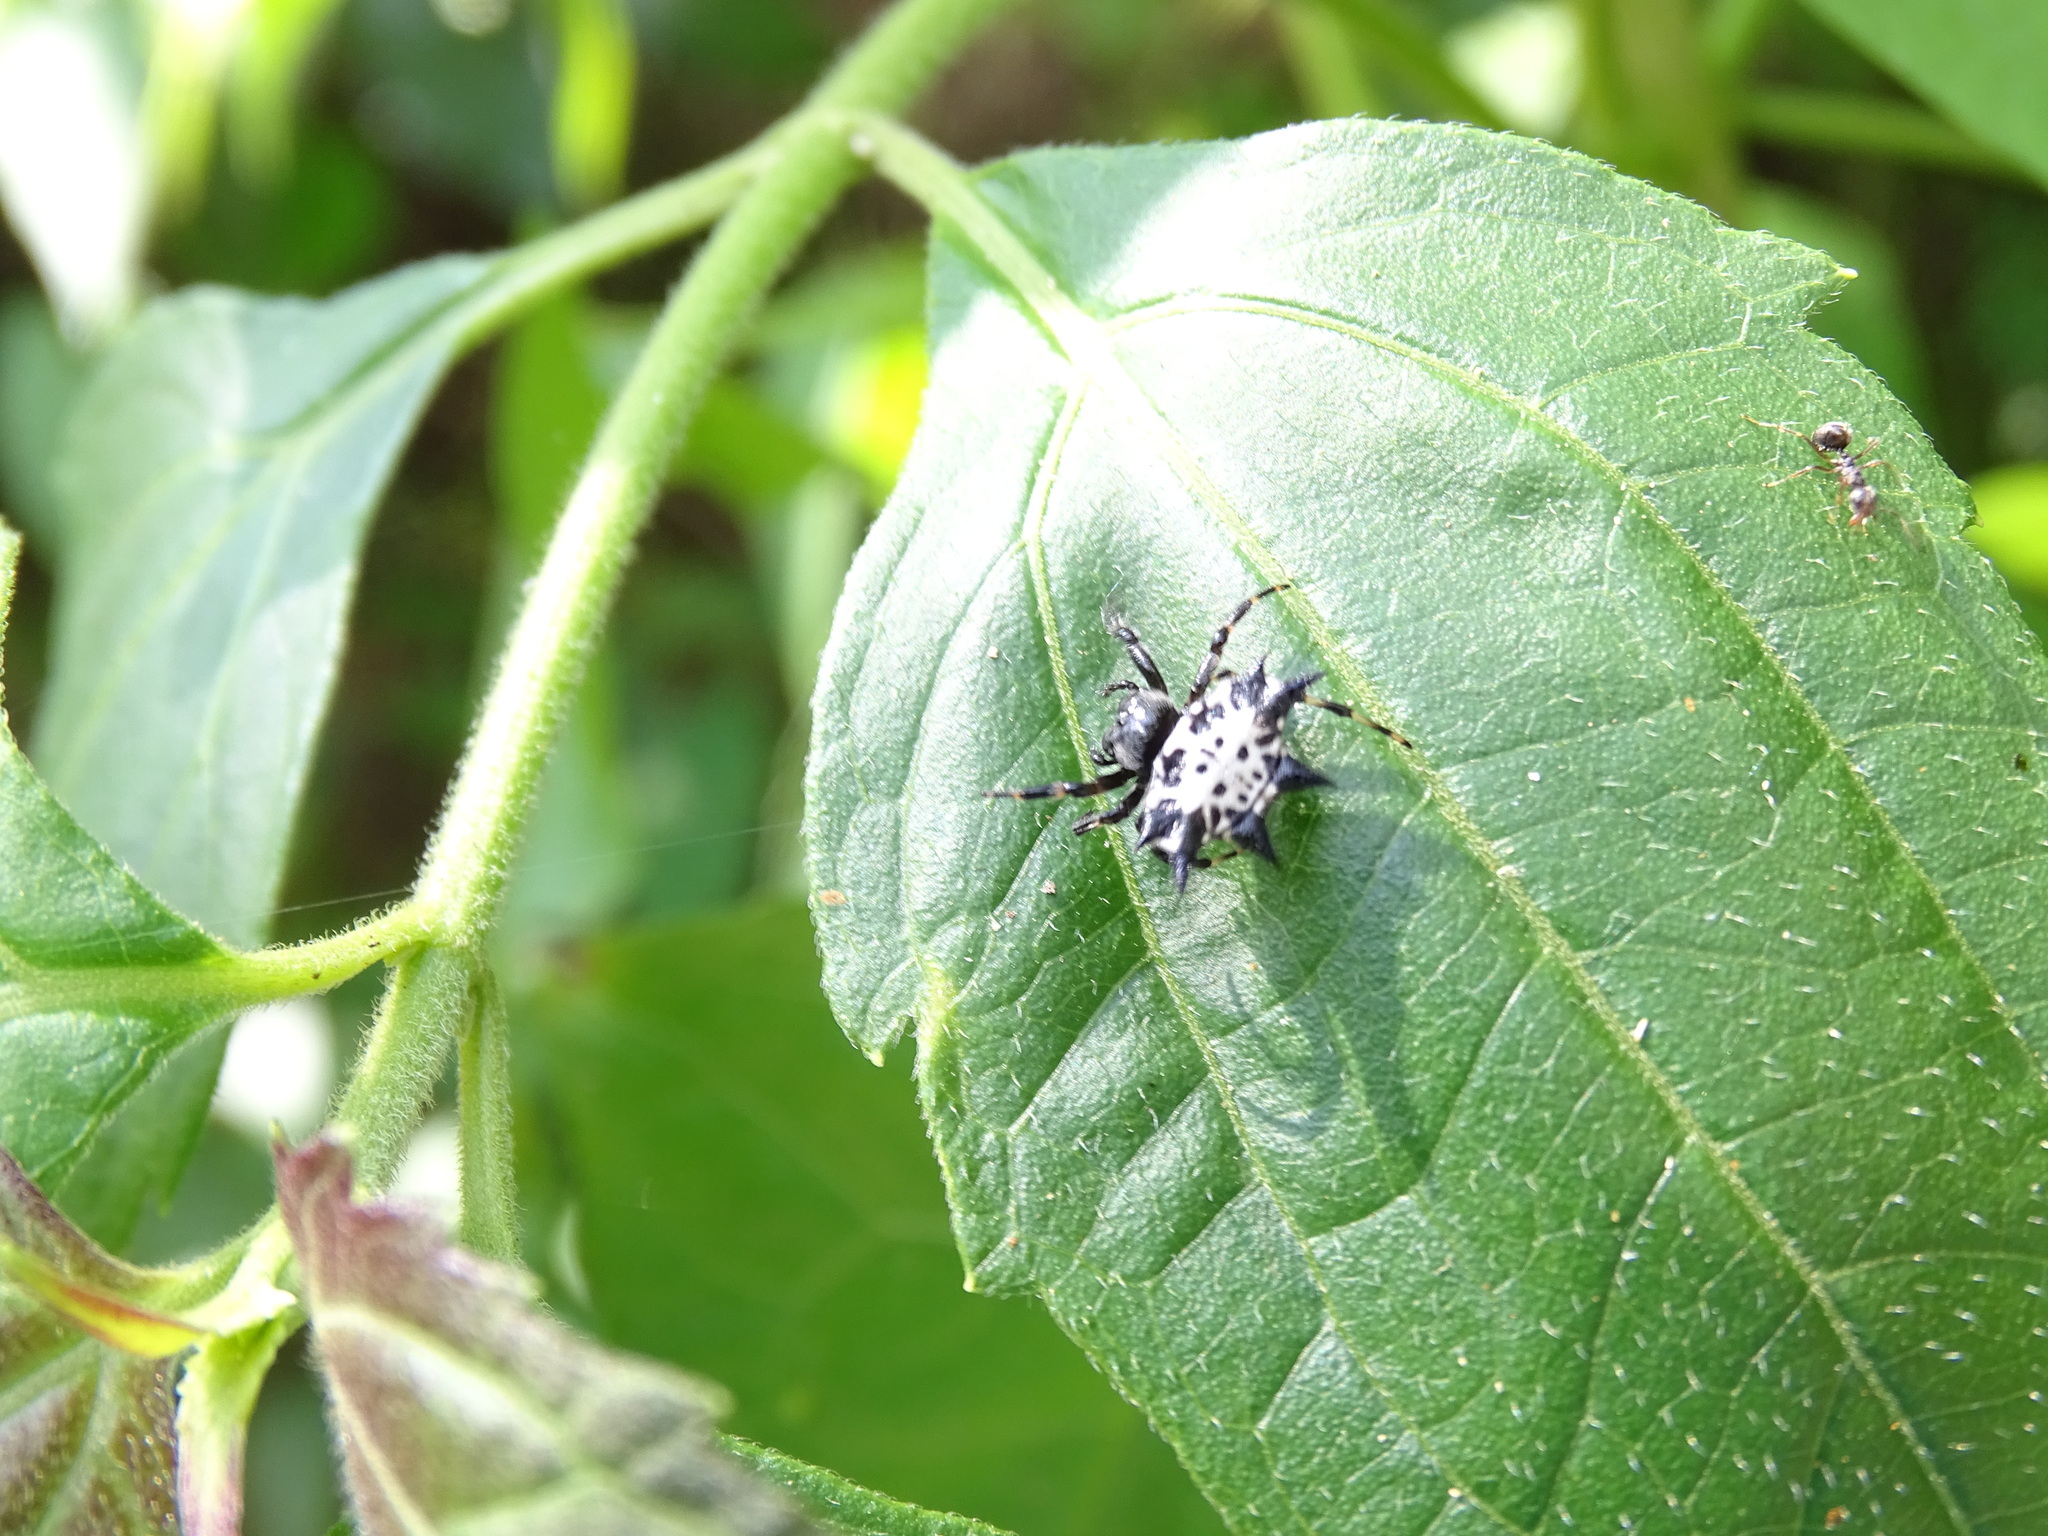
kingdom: Animalia
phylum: Arthropoda
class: Arachnida
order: Araneae
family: Araneidae
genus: Gasteracantha
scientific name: Gasteracantha kuhli
